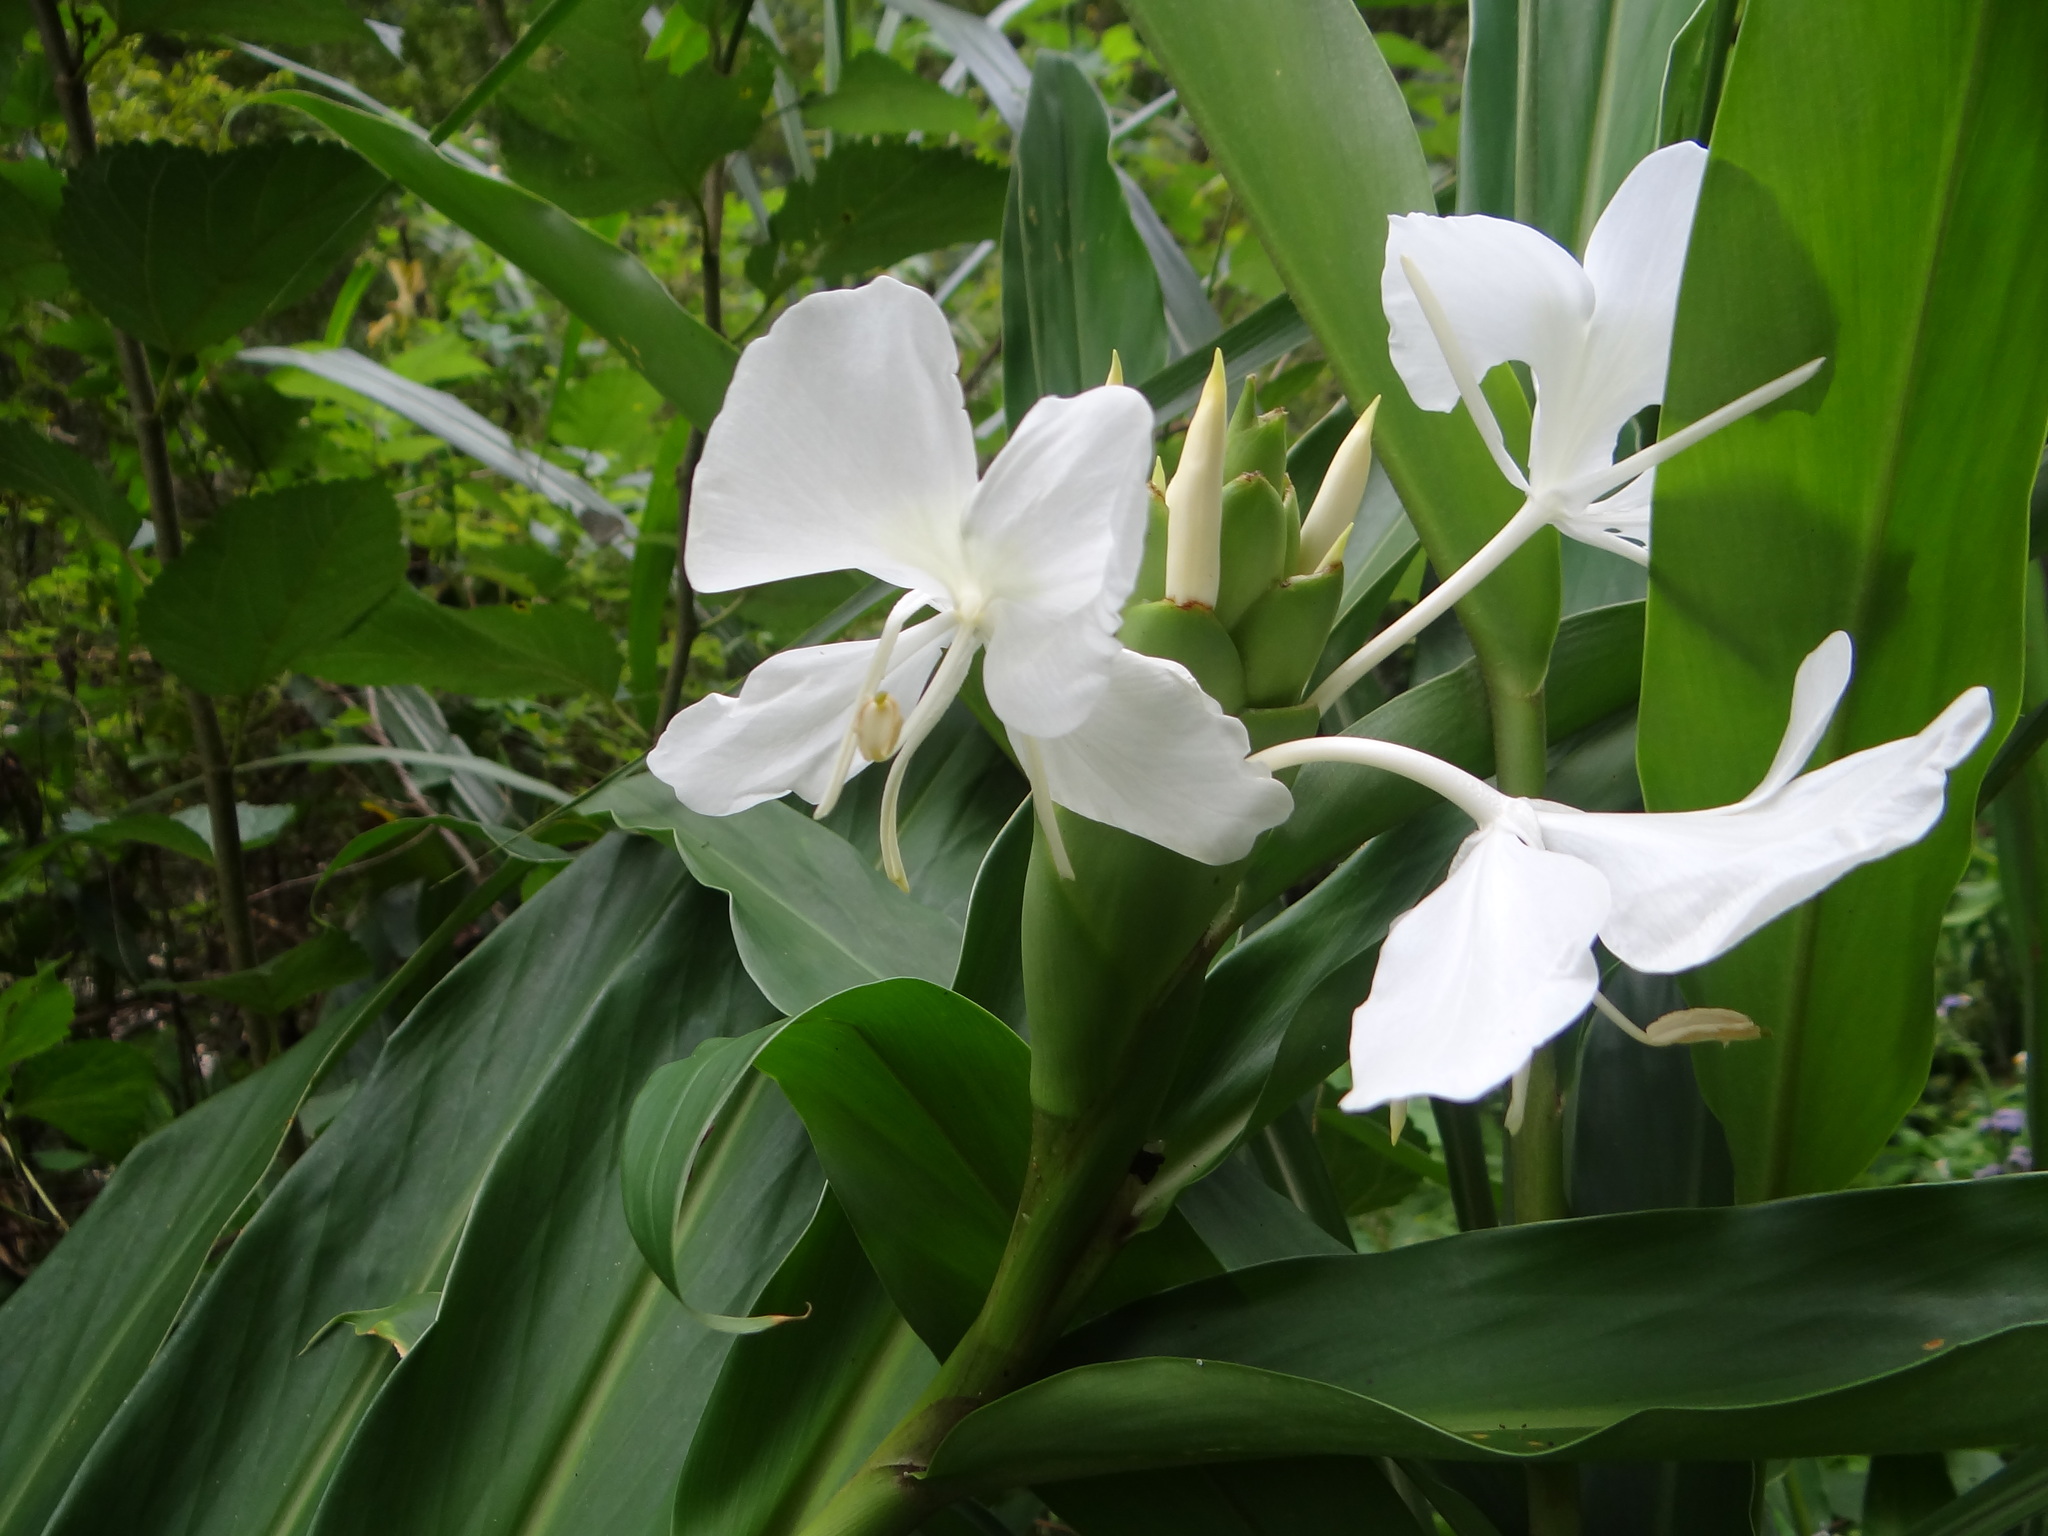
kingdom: Plantae
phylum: Tracheophyta
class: Liliopsida
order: Zingiberales
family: Zingiberaceae
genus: Hedychium
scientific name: Hedychium coronarium
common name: White garland-lily
